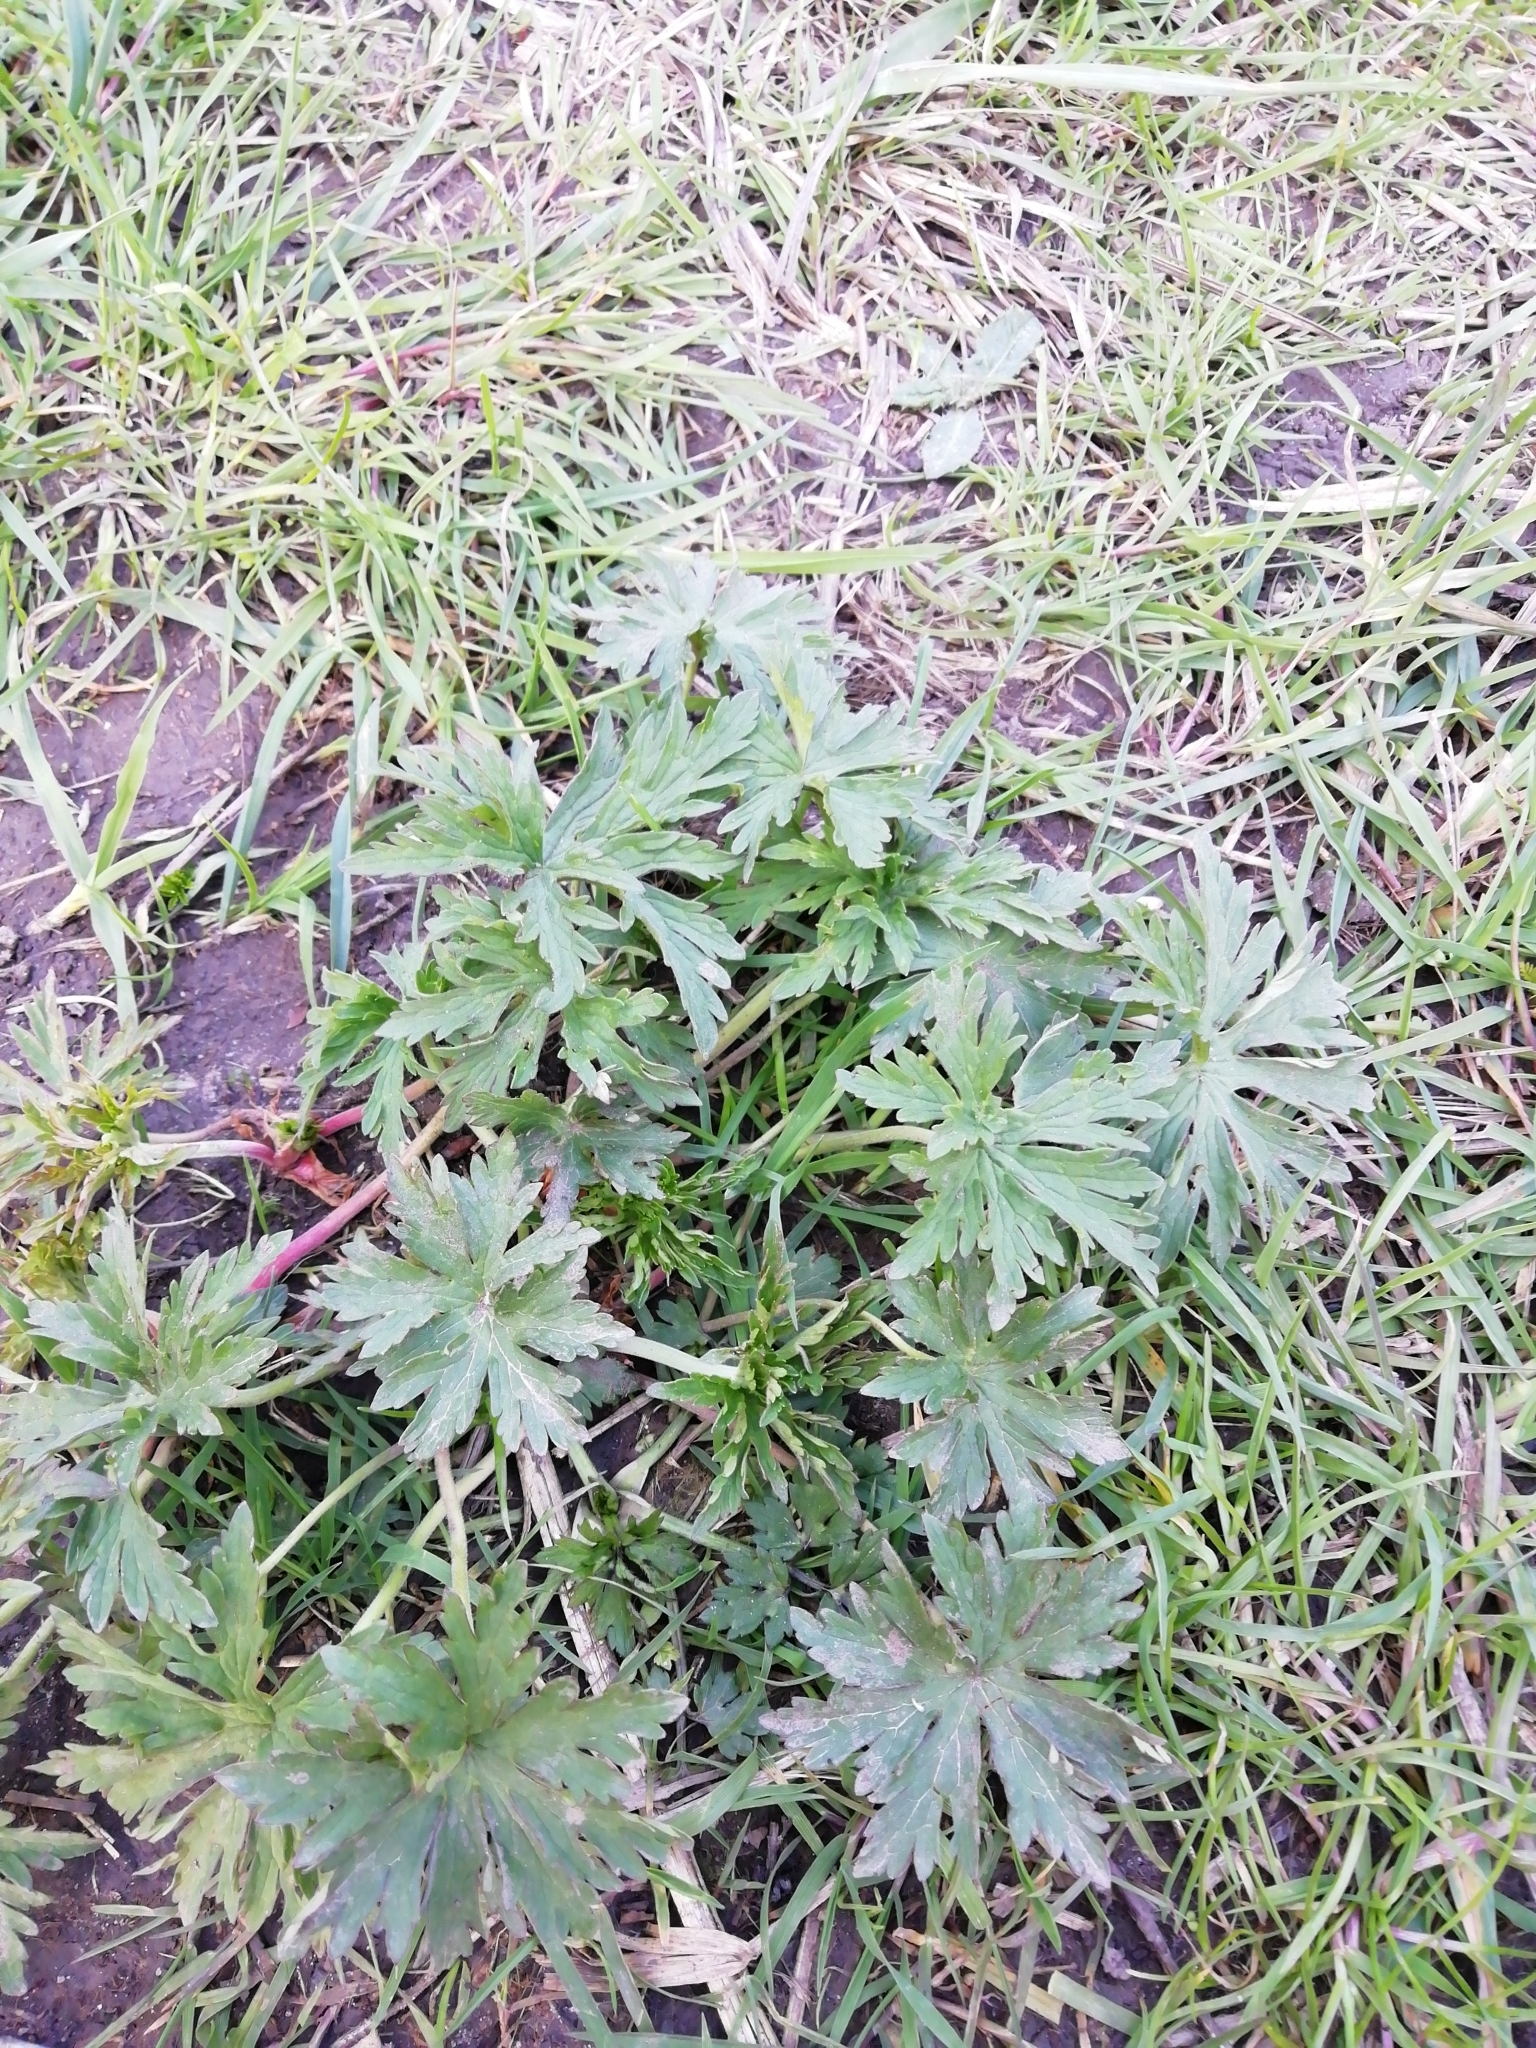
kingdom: Plantae
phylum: Tracheophyta
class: Magnoliopsida
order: Ranunculales
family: Ranunculaceae
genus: Ranunculus
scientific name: Ranunculus acris
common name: Meadow buttercup
